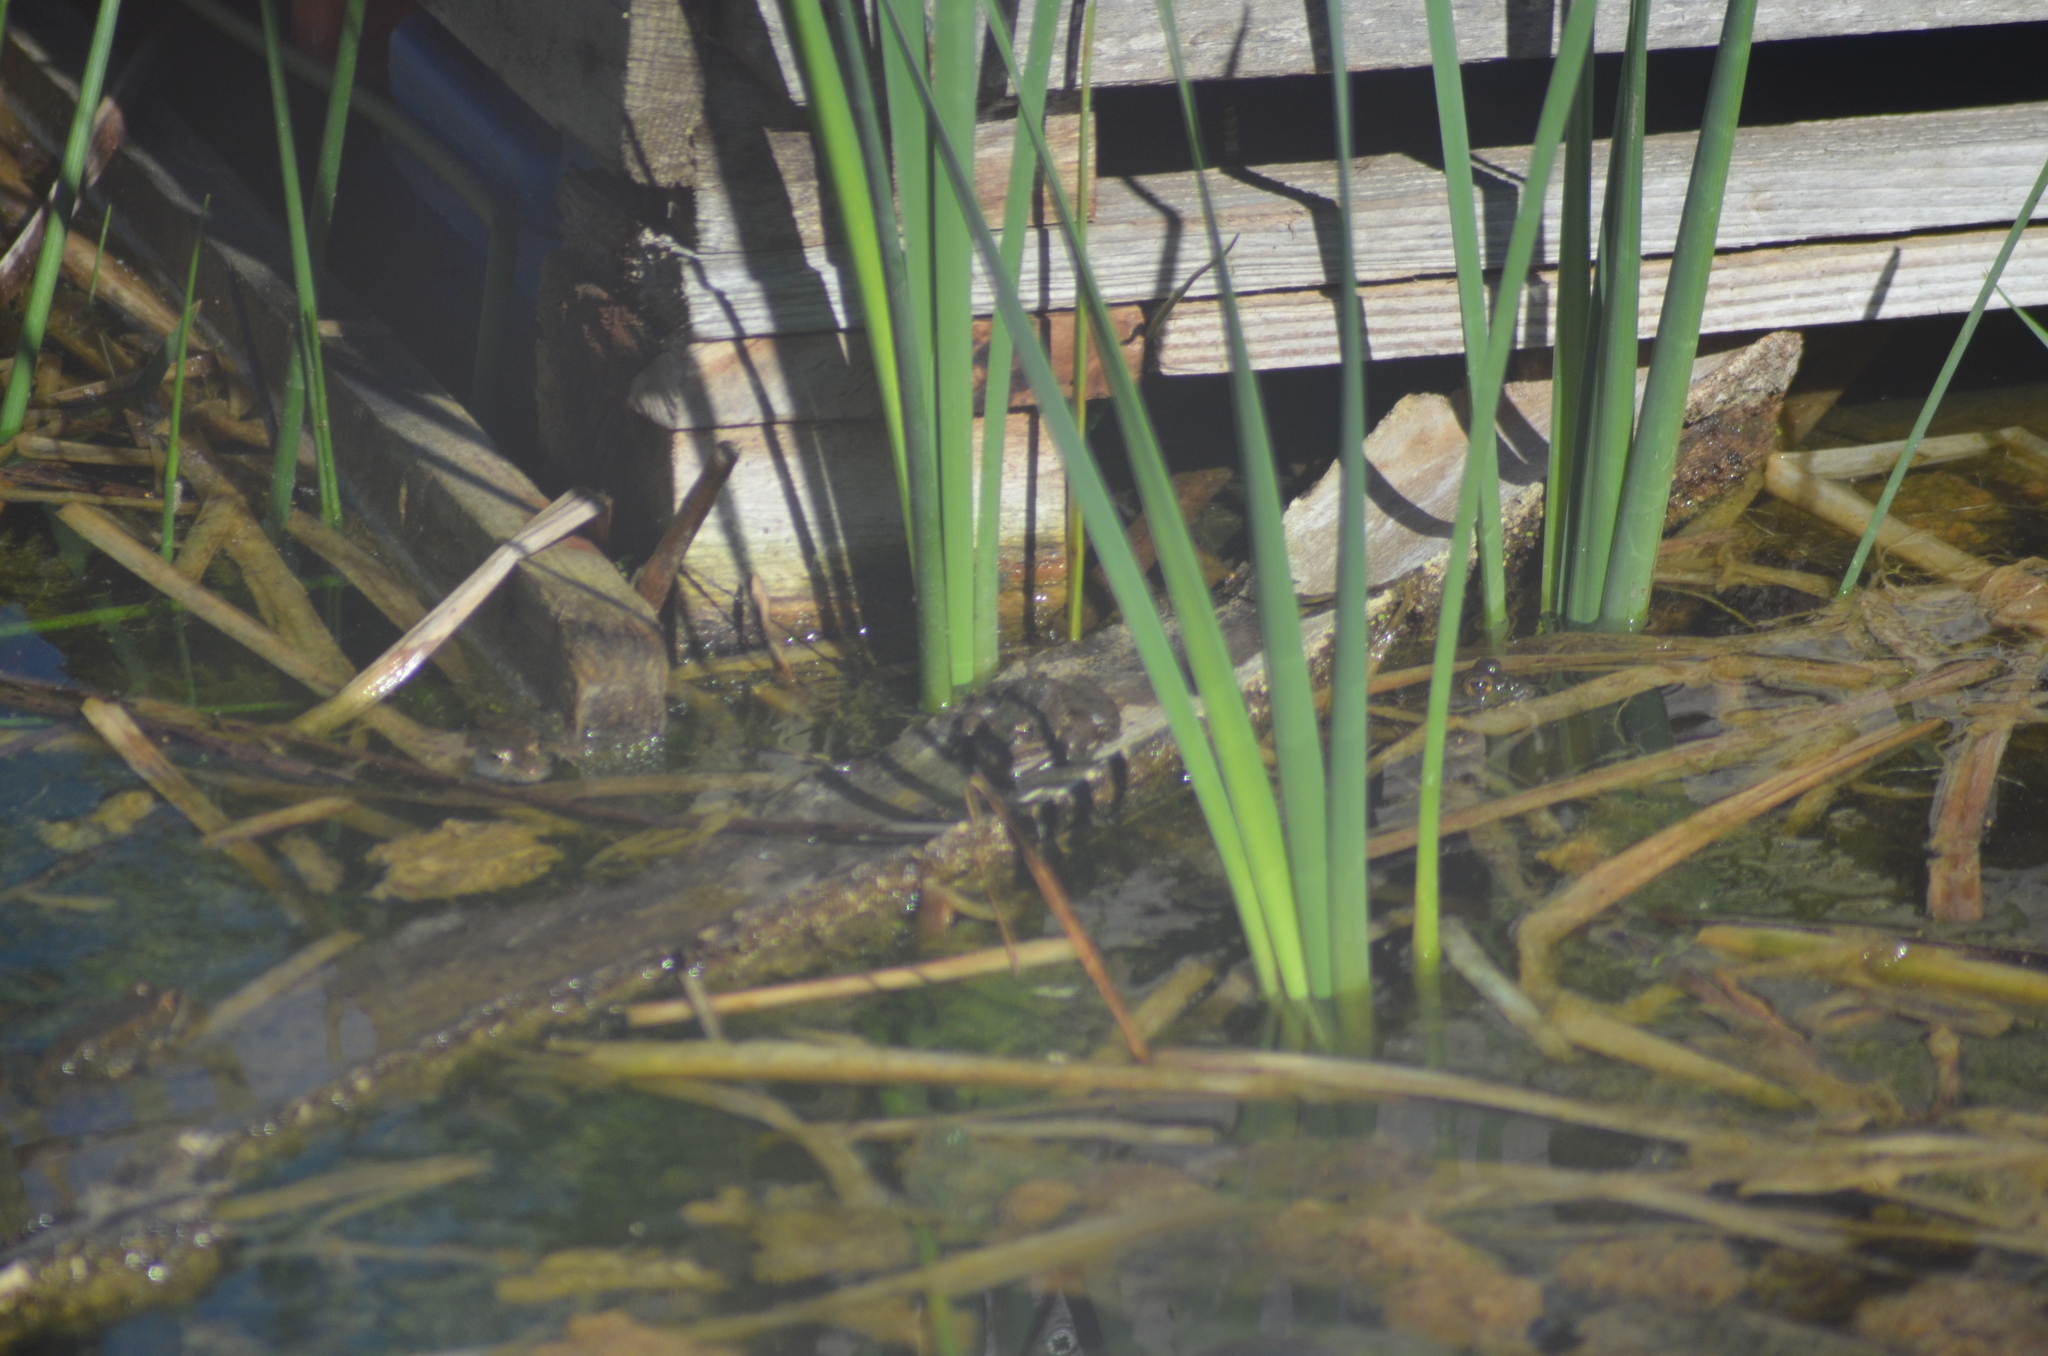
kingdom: Animalia
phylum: Chordata
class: Amphibia
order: Anura
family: Ranidae
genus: Pelophylax
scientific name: Pelophylax
